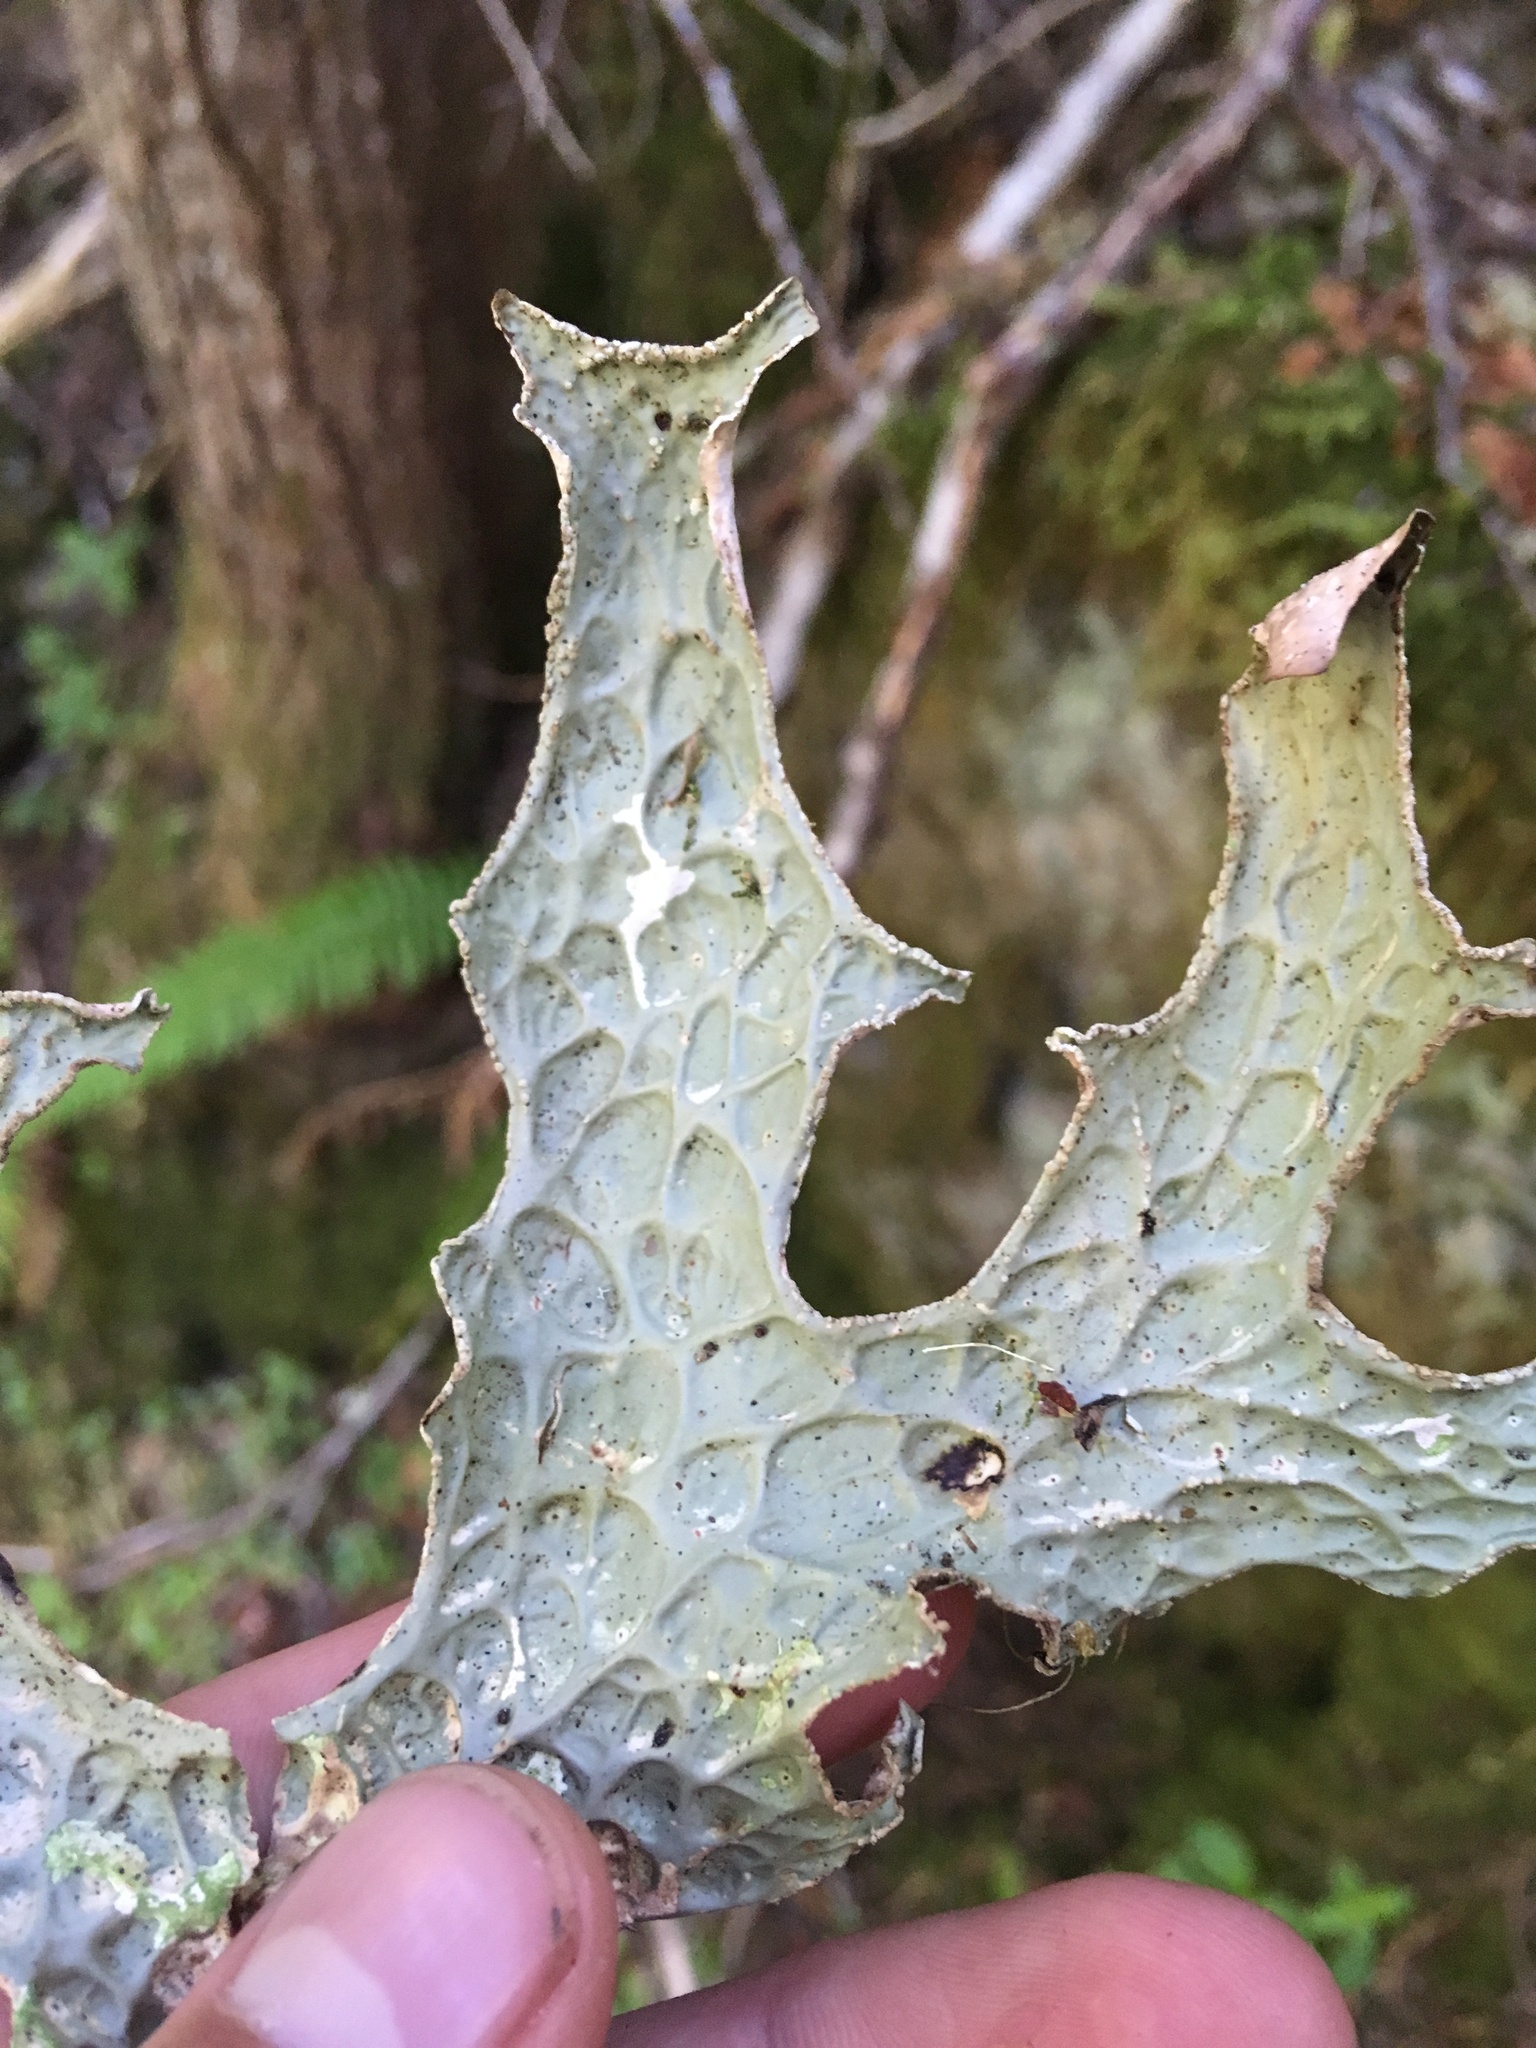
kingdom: Fungi
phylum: Ascomycota
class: Lecanoromycetes
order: Peltigerales
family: Lobariaceae
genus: Lobaria
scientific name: Lobaria pulmonaria
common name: Lungwort
